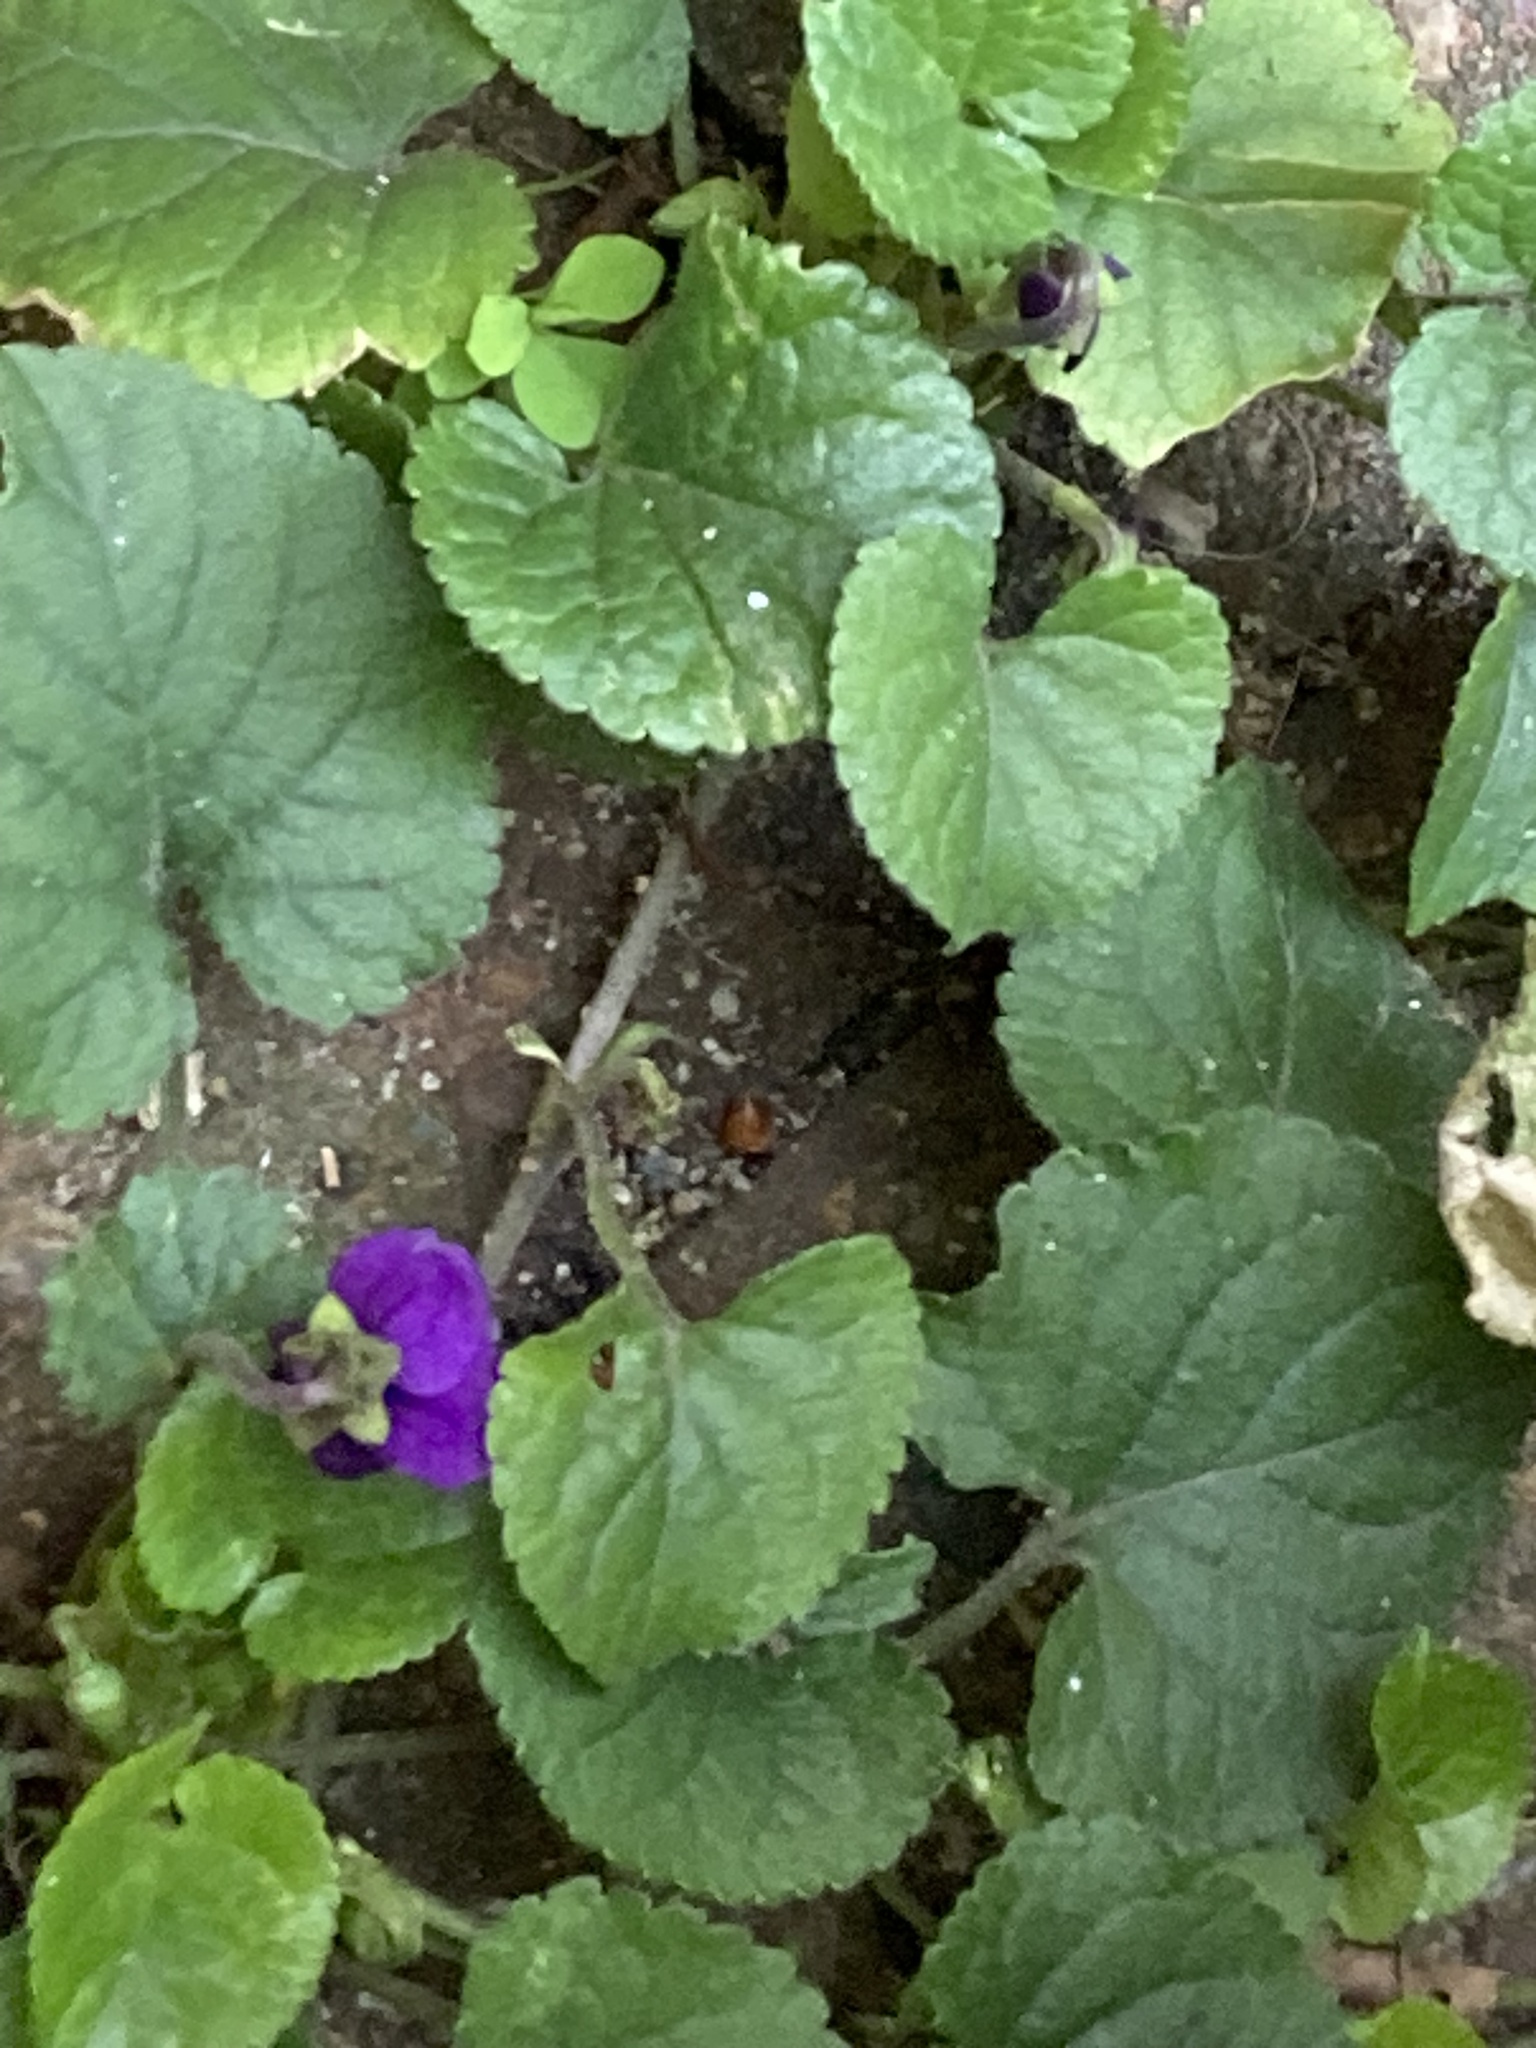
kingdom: Plantae
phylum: Tracheophyta
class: Magnoliopsida
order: Malpighiales
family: Violaceae
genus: Viola
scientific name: Viola odorata
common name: Sweet violet
